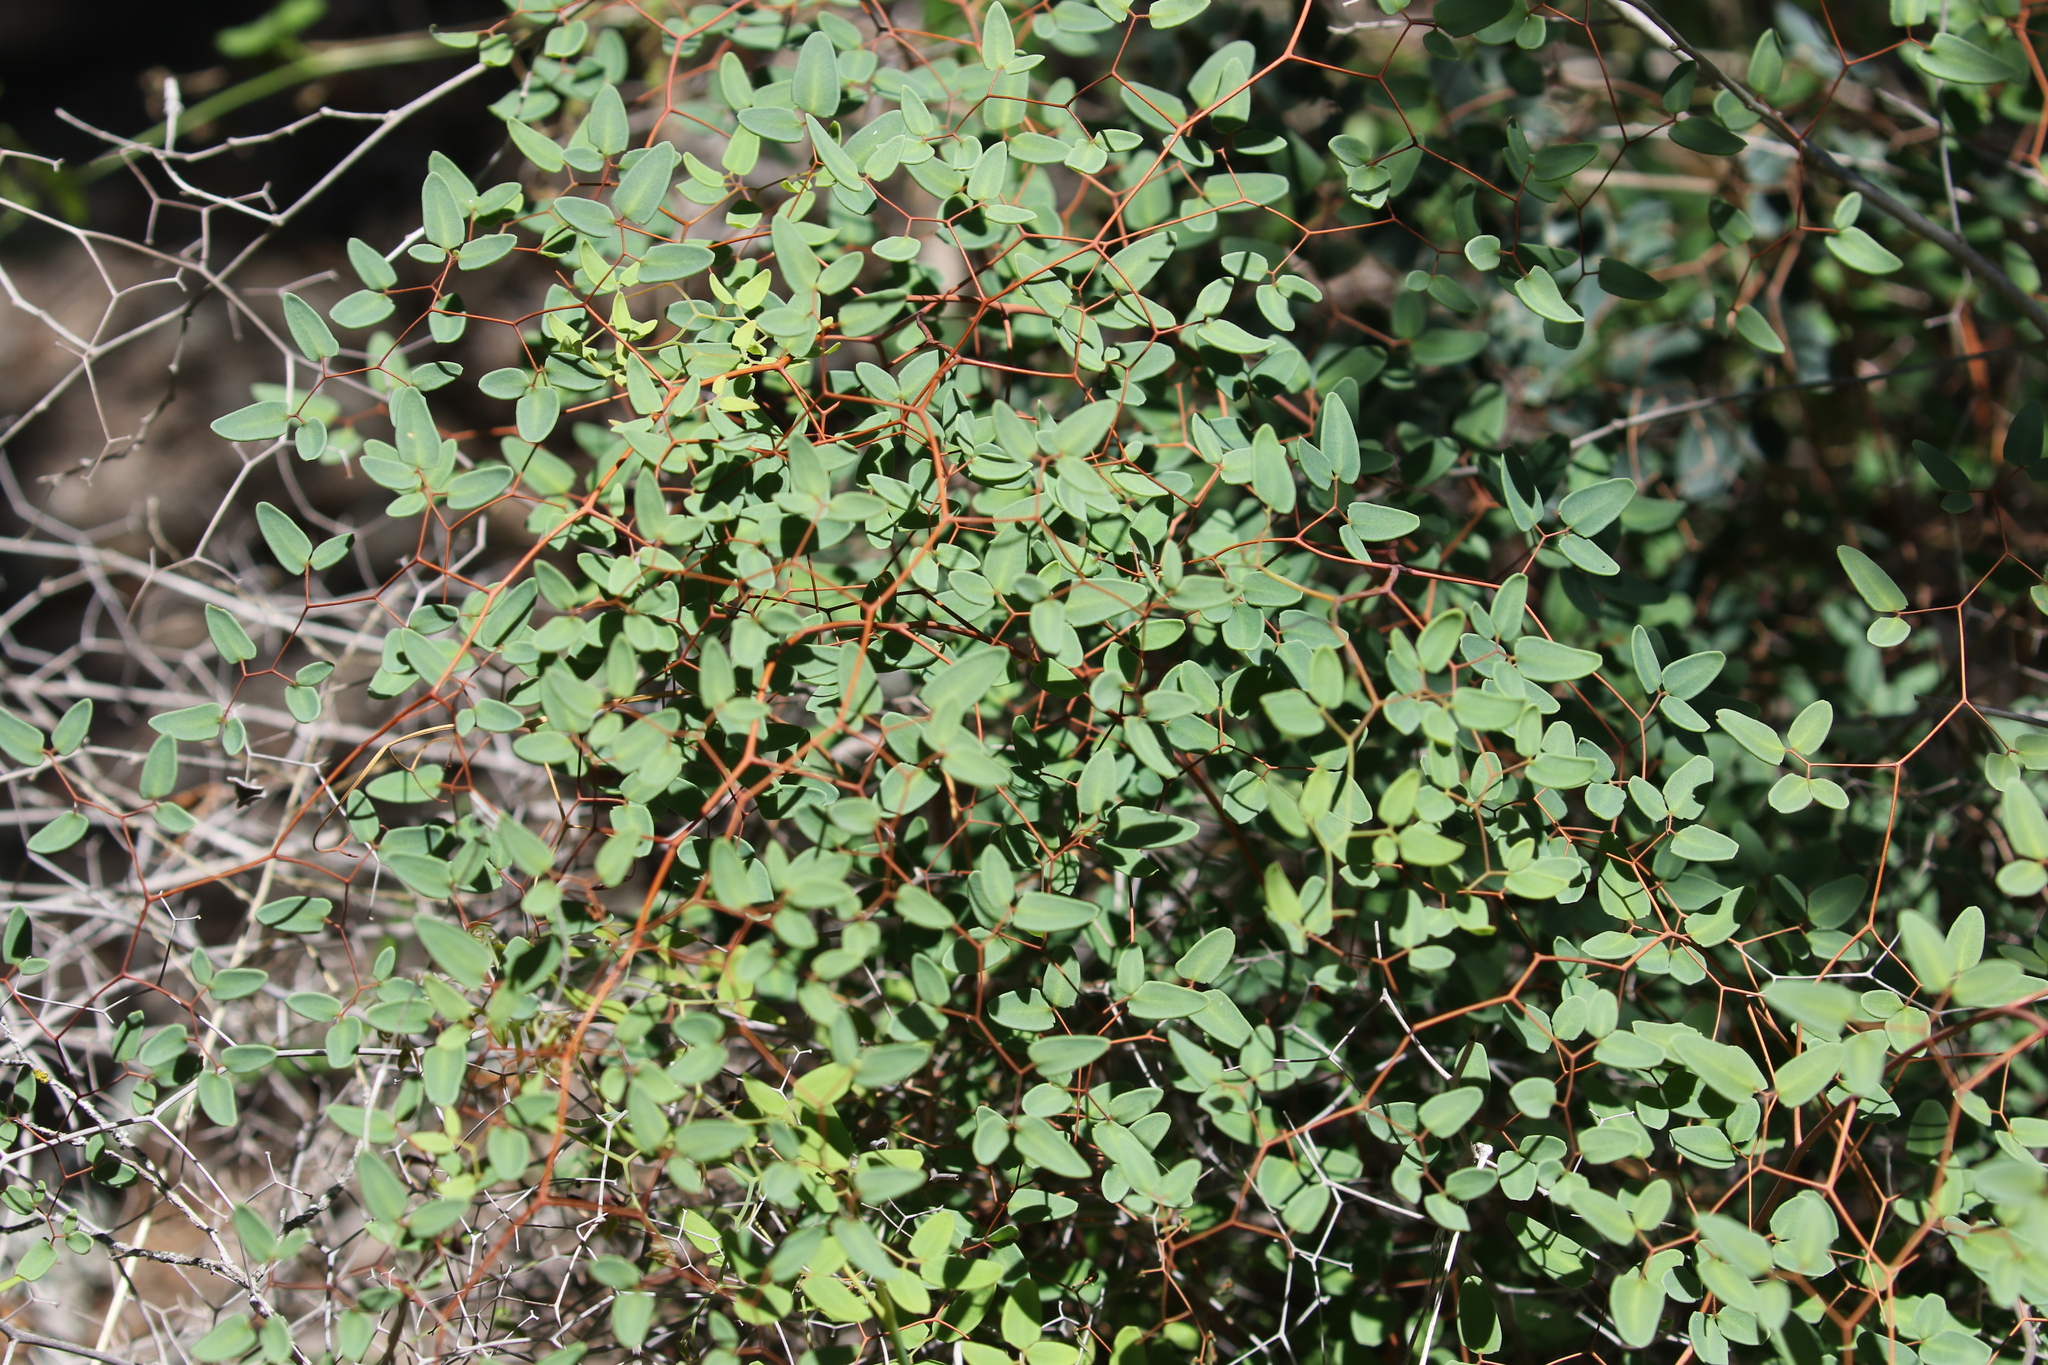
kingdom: Plantae
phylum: Tracheophyta
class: Polypodiopsida
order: Polypodiales
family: Pteridaceae
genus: Pellaea
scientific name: Pellaea ovata
